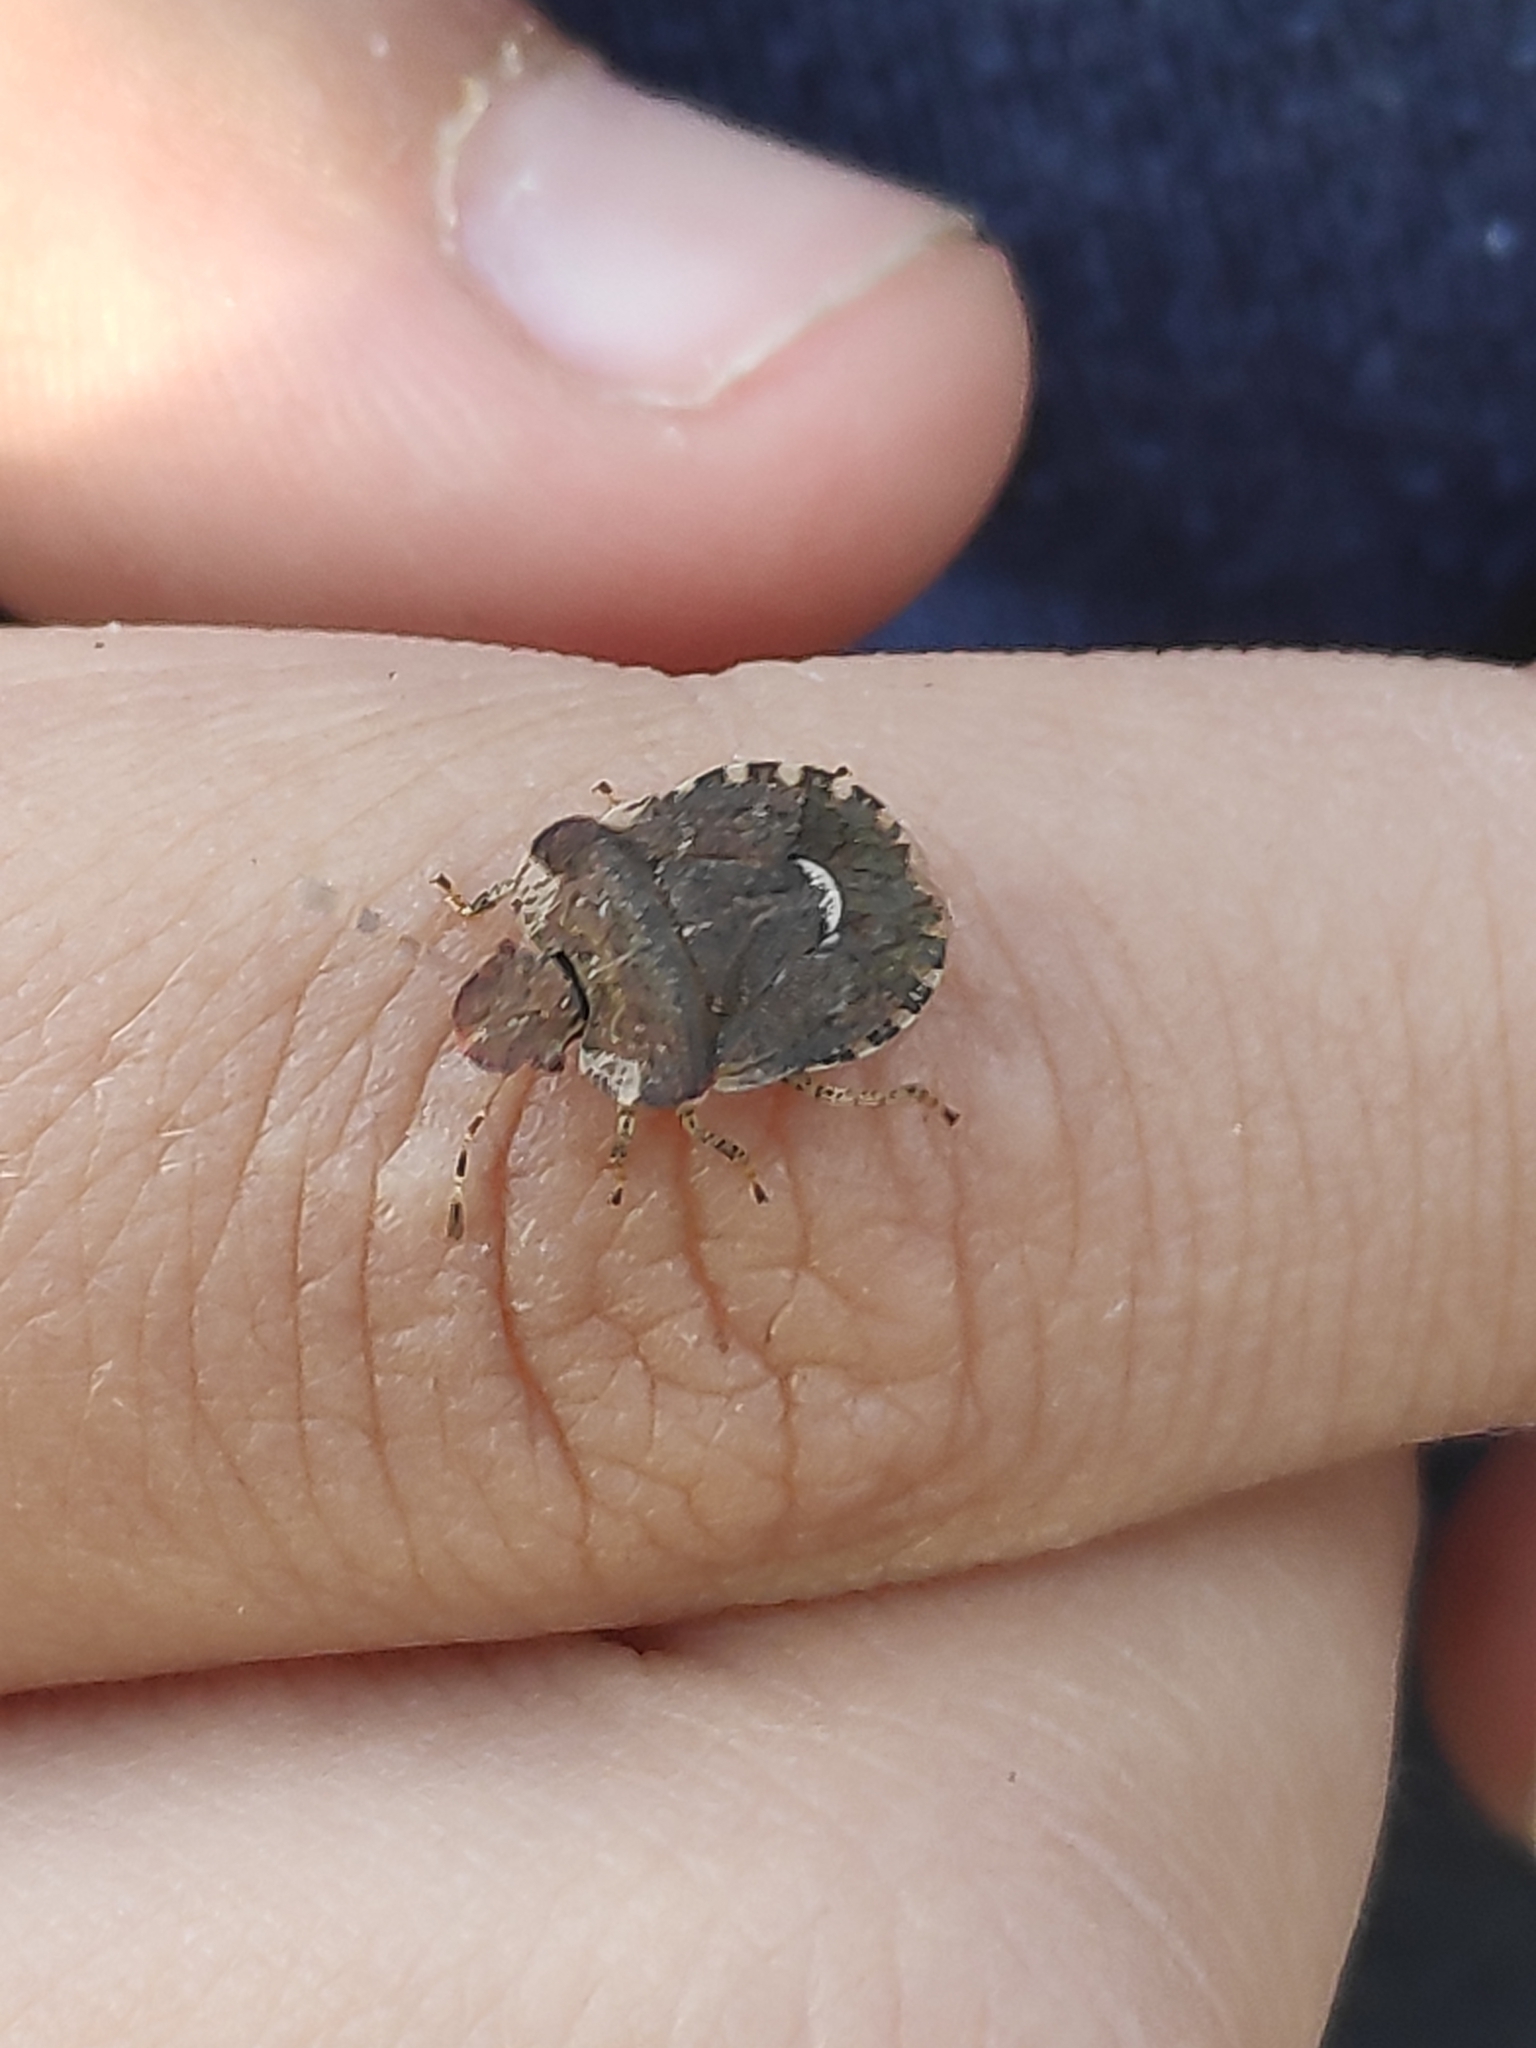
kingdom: Animalia
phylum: Arthropoda
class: Insecta
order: Hemiptera
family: Pentatomidae
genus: Dyroderes
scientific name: Dyroderes umbraculatus
